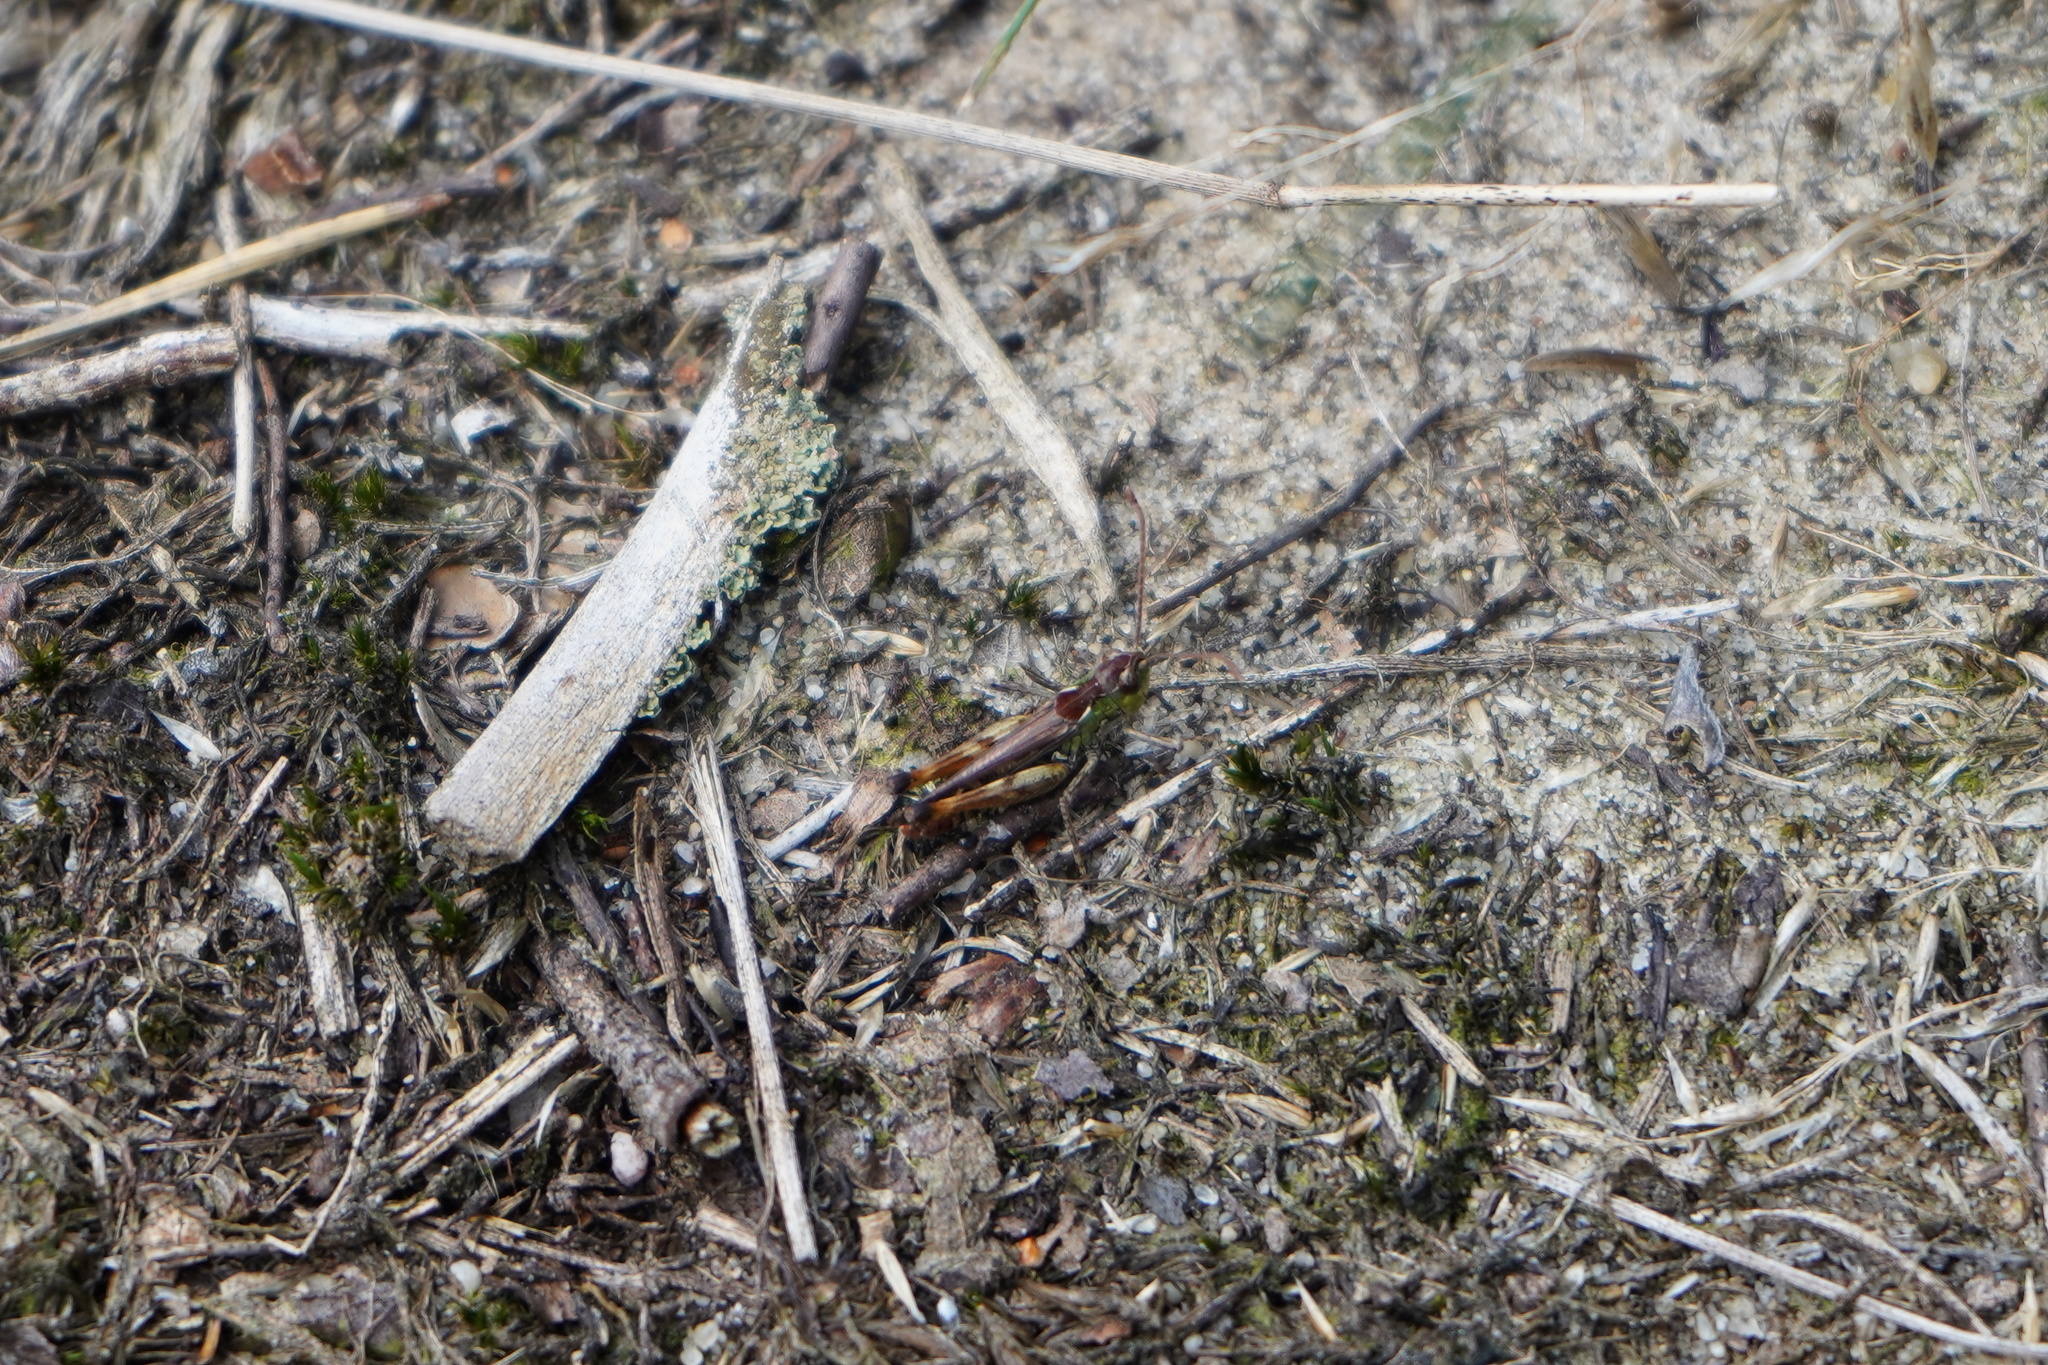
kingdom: Animalia
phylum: Arthropoda
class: Insecta
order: Orthoptera
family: Acrididae
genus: Myrmeleotettix
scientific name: Myrmeleotettix maculatus
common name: Mottled grasshopper
